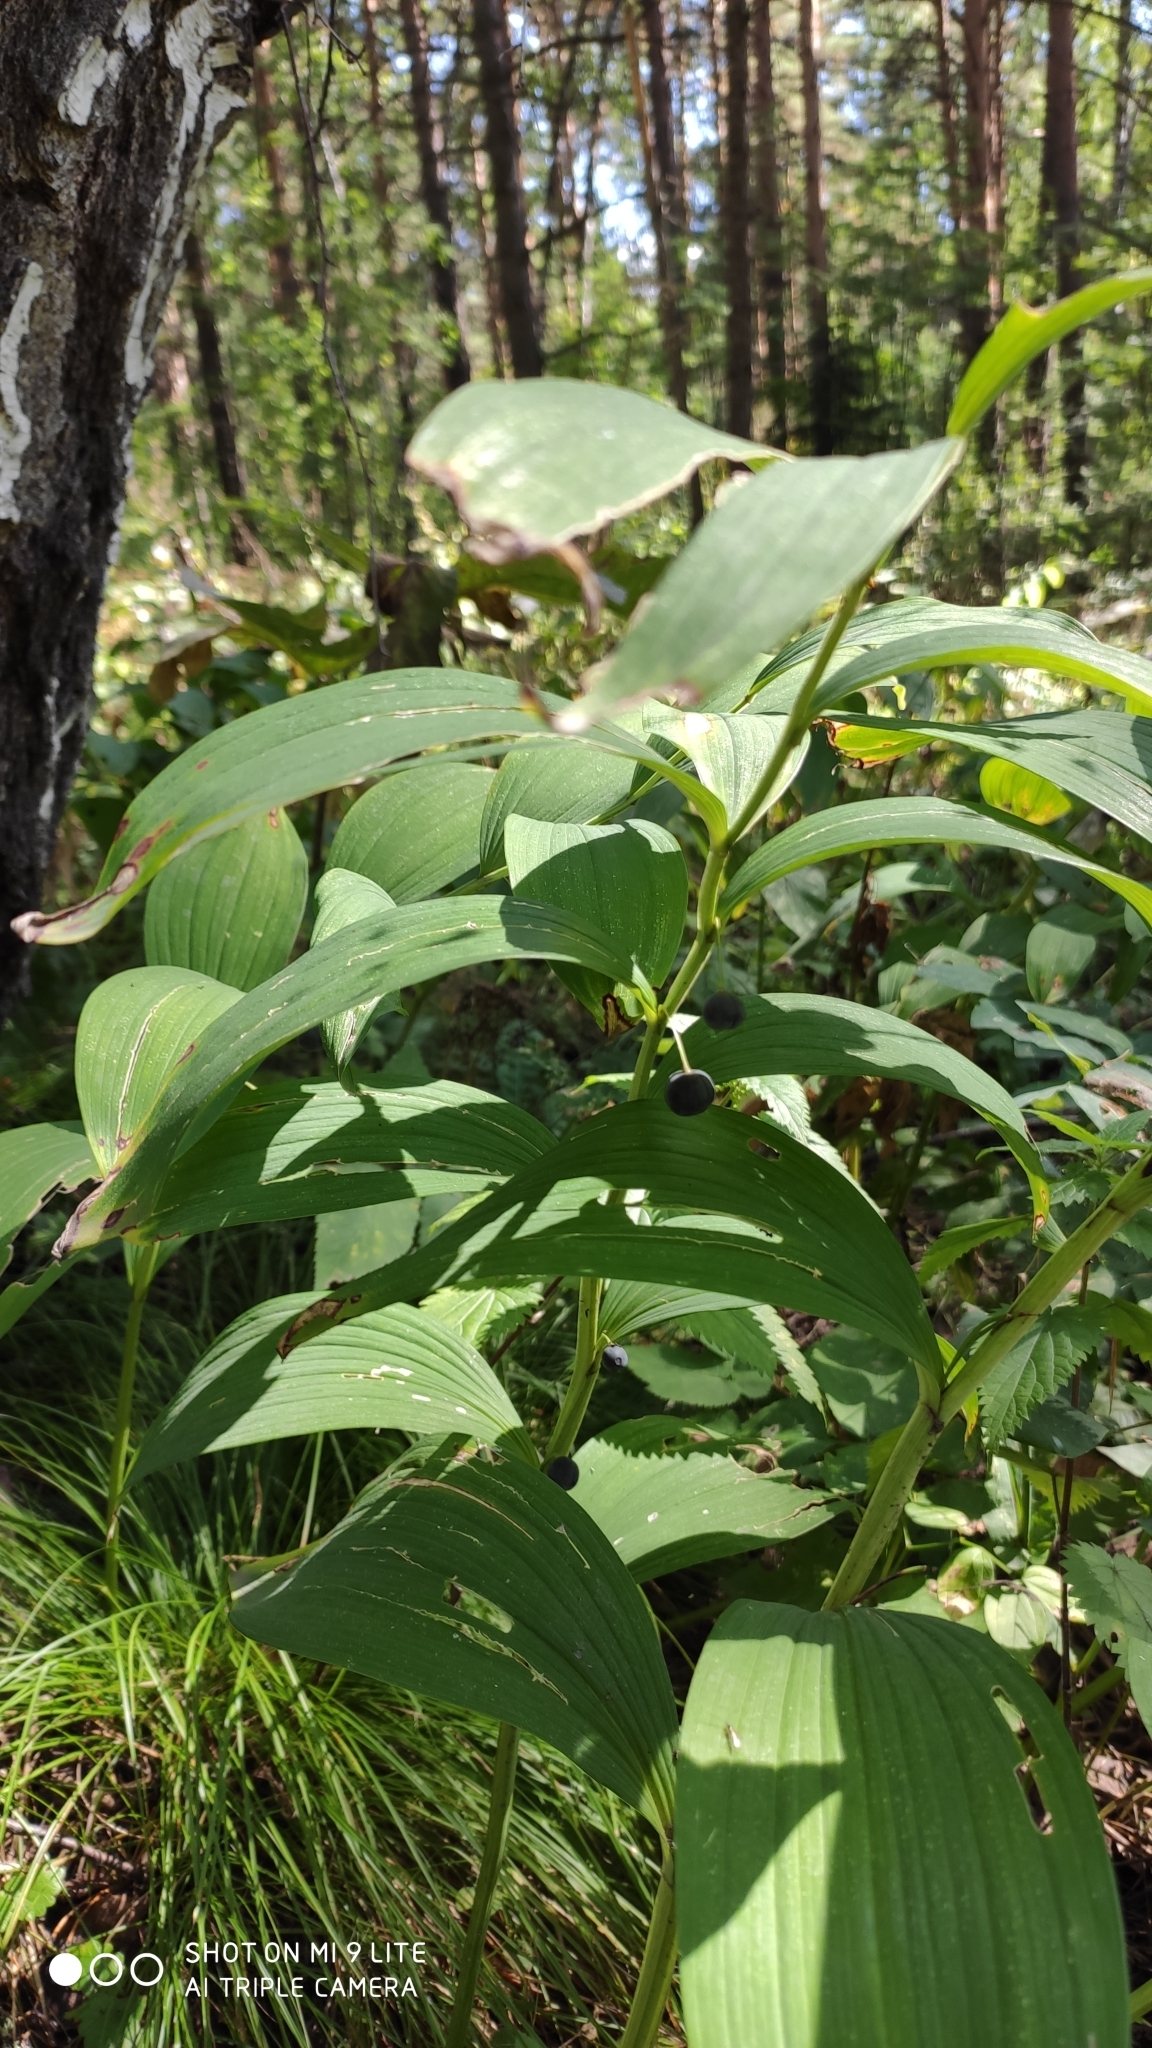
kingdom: Plantae
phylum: Tracheophyta
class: Liliopsida
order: Asparagales
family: Asparagaceae
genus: Polygonatum
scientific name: Polygonatum odoratum
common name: Angular solomon's-seal
